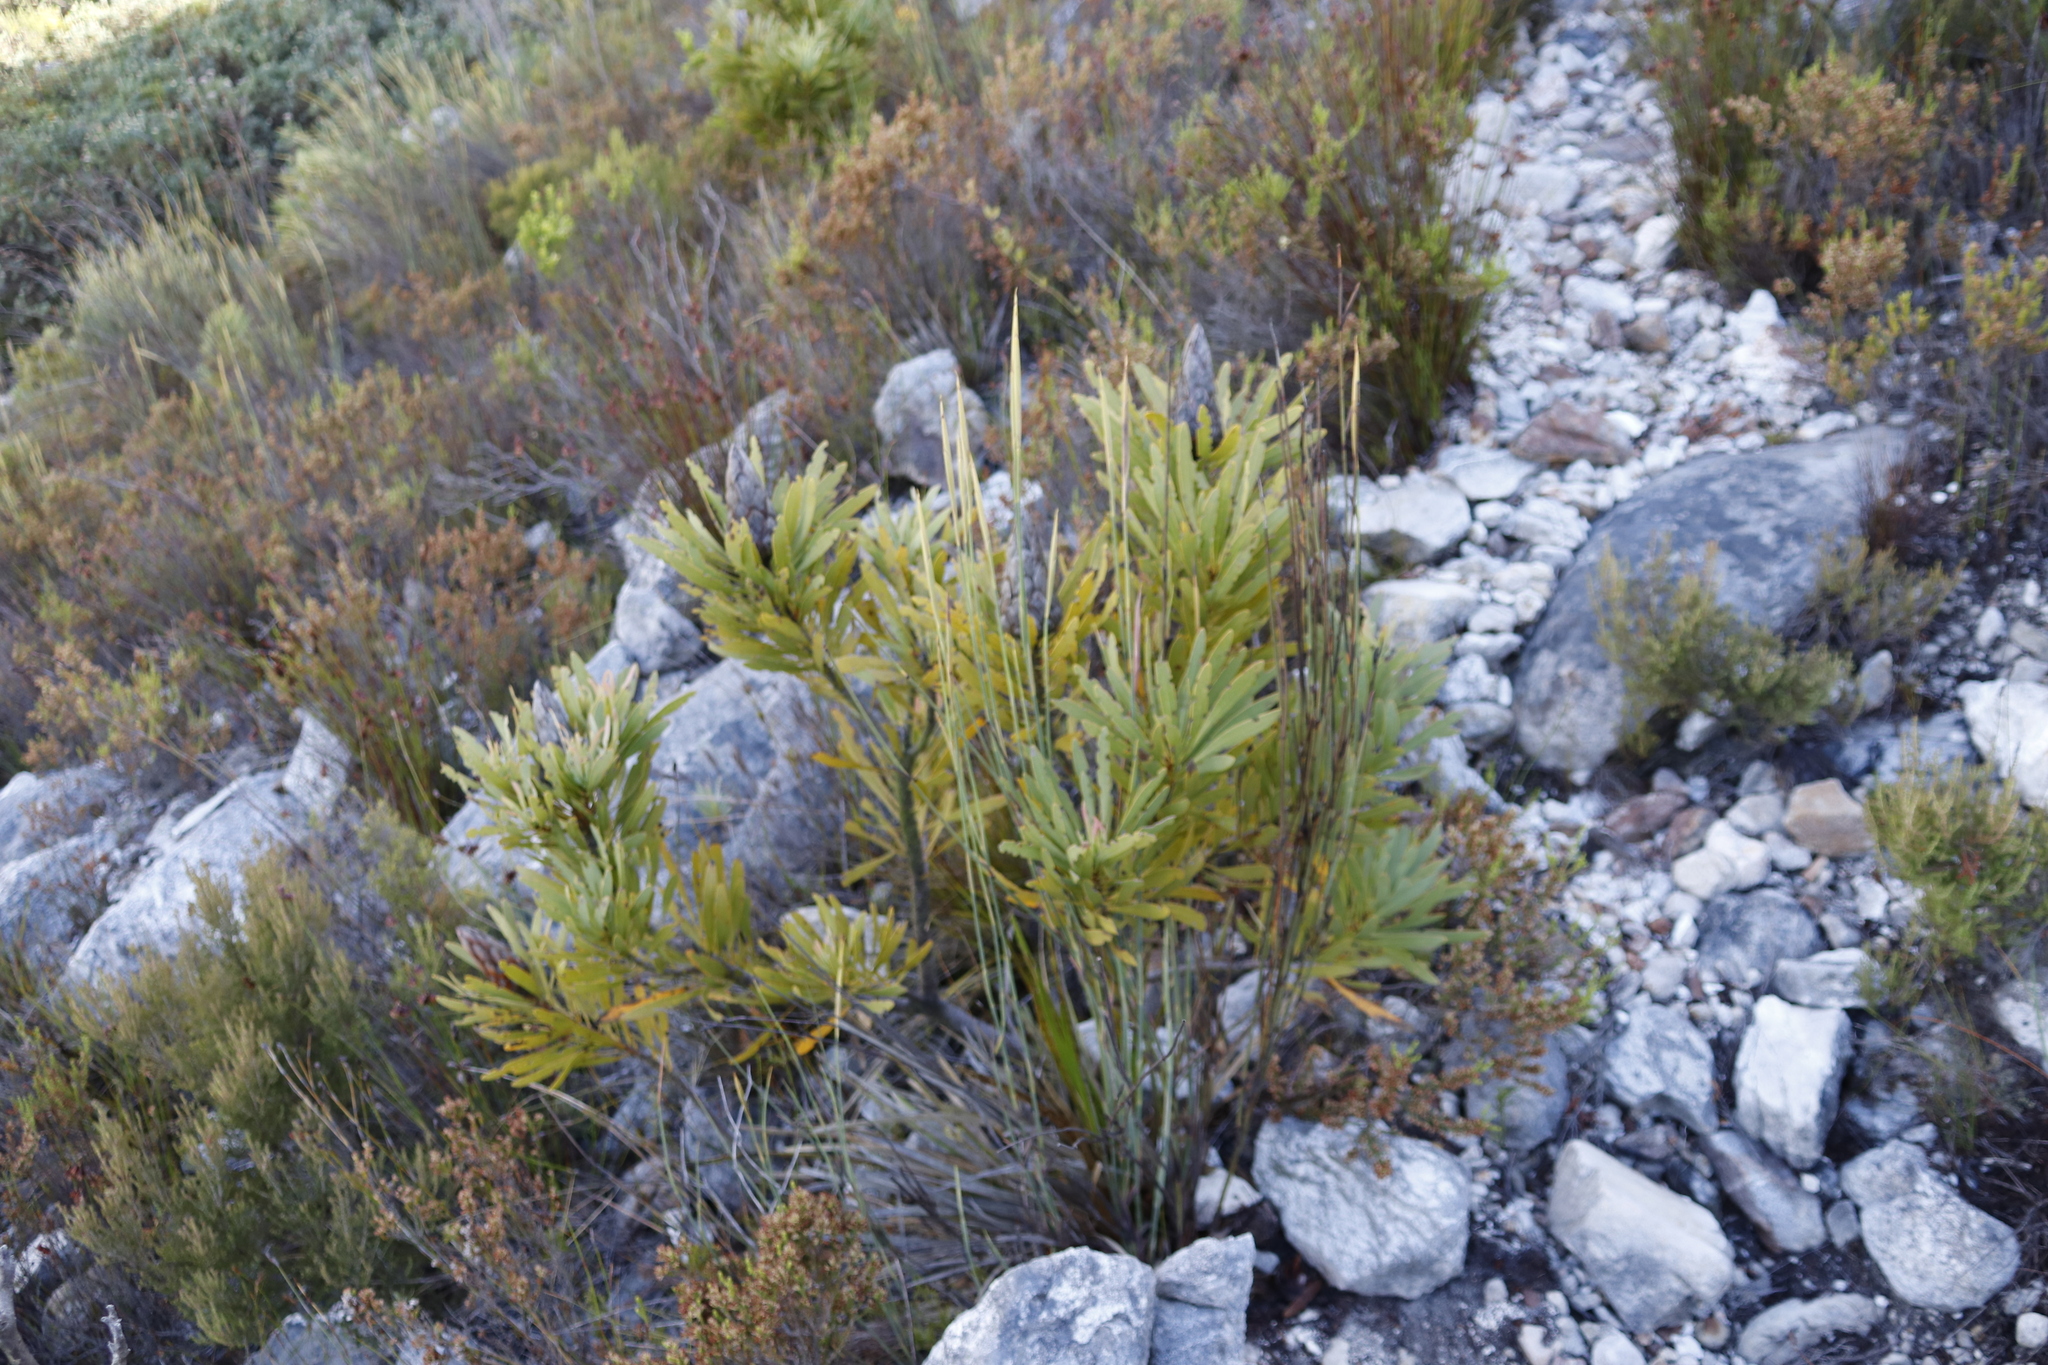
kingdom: Plantae
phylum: Tracheophyta
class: Magnoliopsida
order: Proteales
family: Proteaceae
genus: Protea
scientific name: Protea repens
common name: Sugarbush
